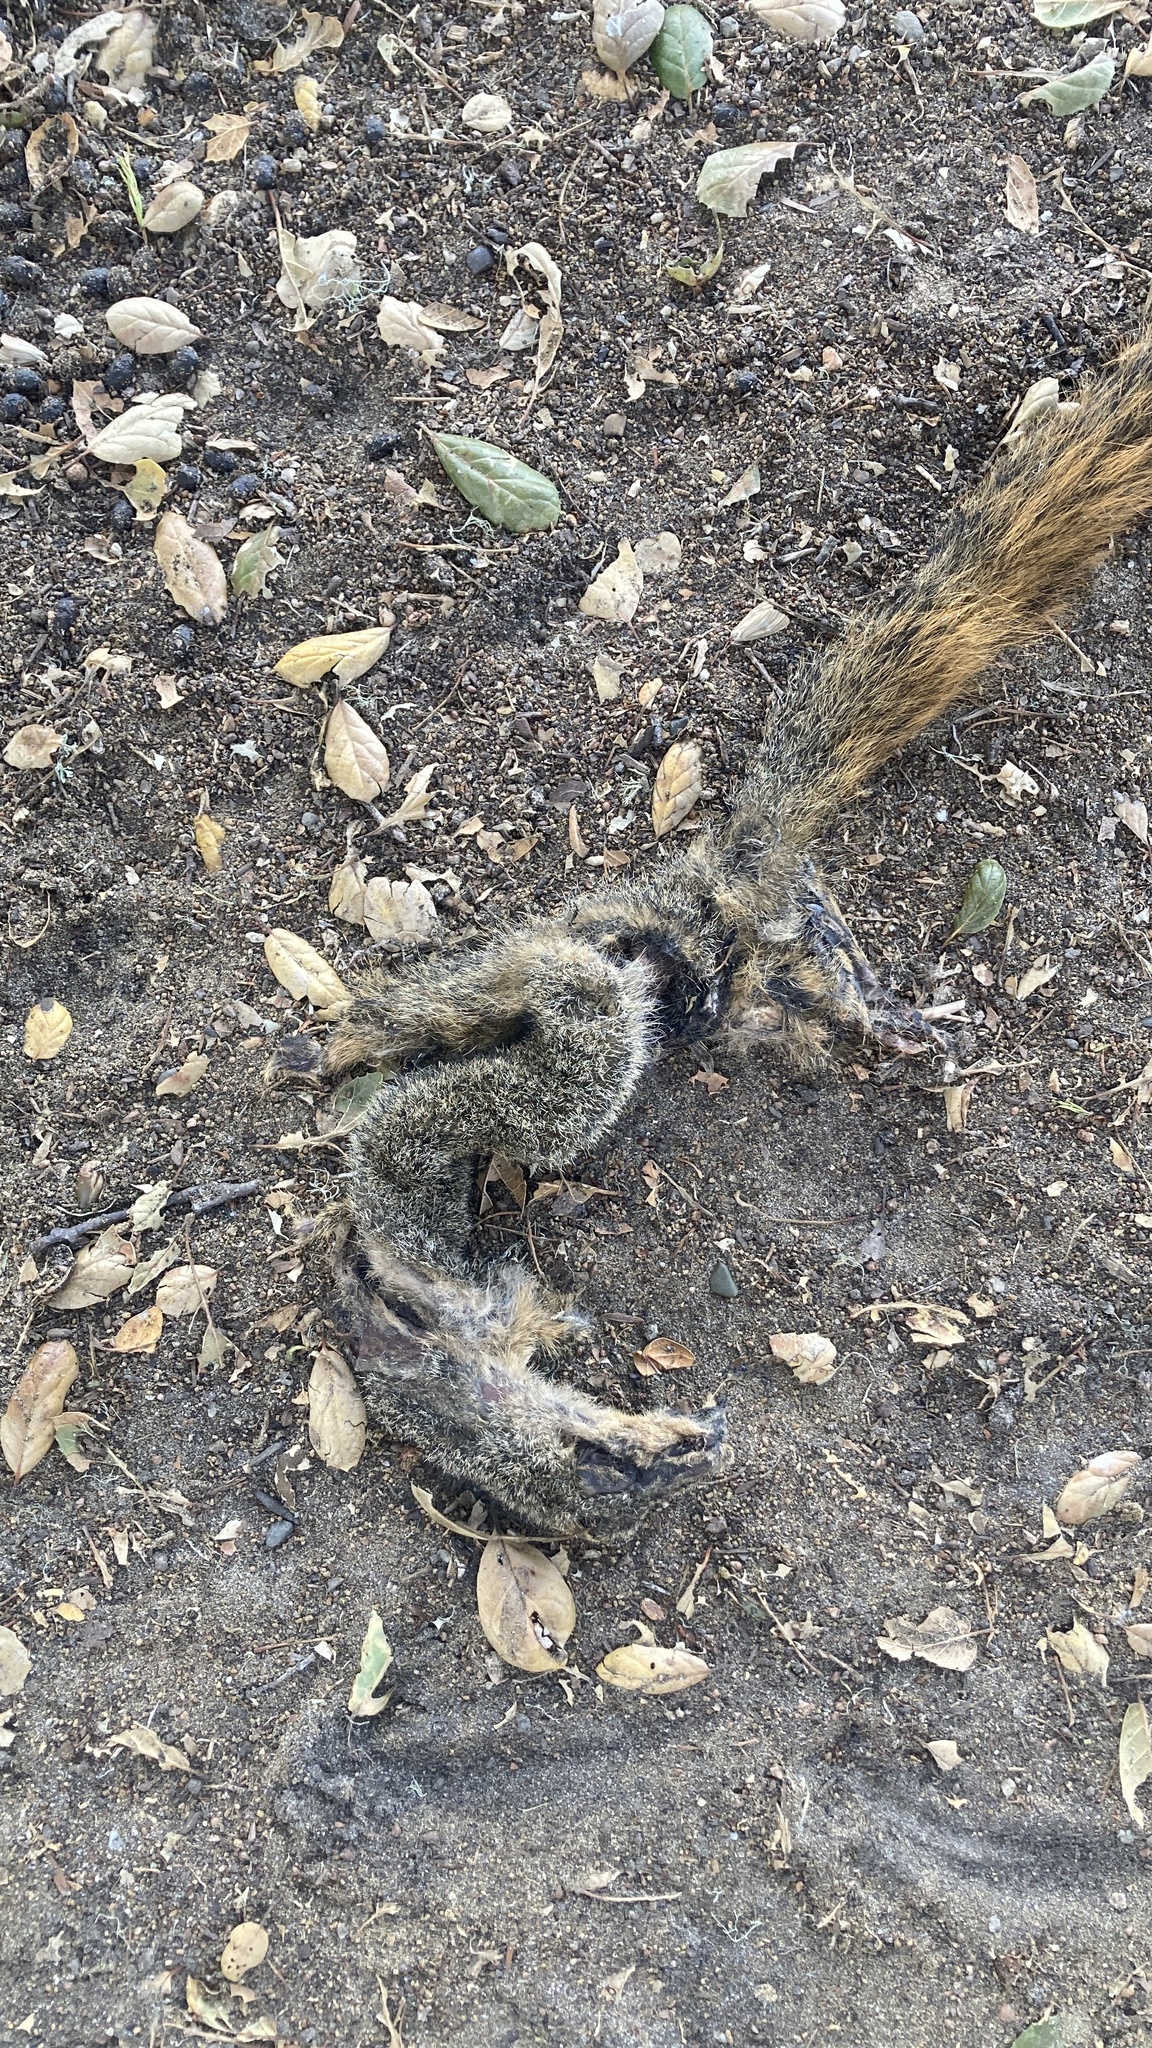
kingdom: Animalia
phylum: Chordata
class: Mammalia
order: Rodentia
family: Sciuridae
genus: Sciurus
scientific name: Sciurus niger
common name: Fox squirrel
